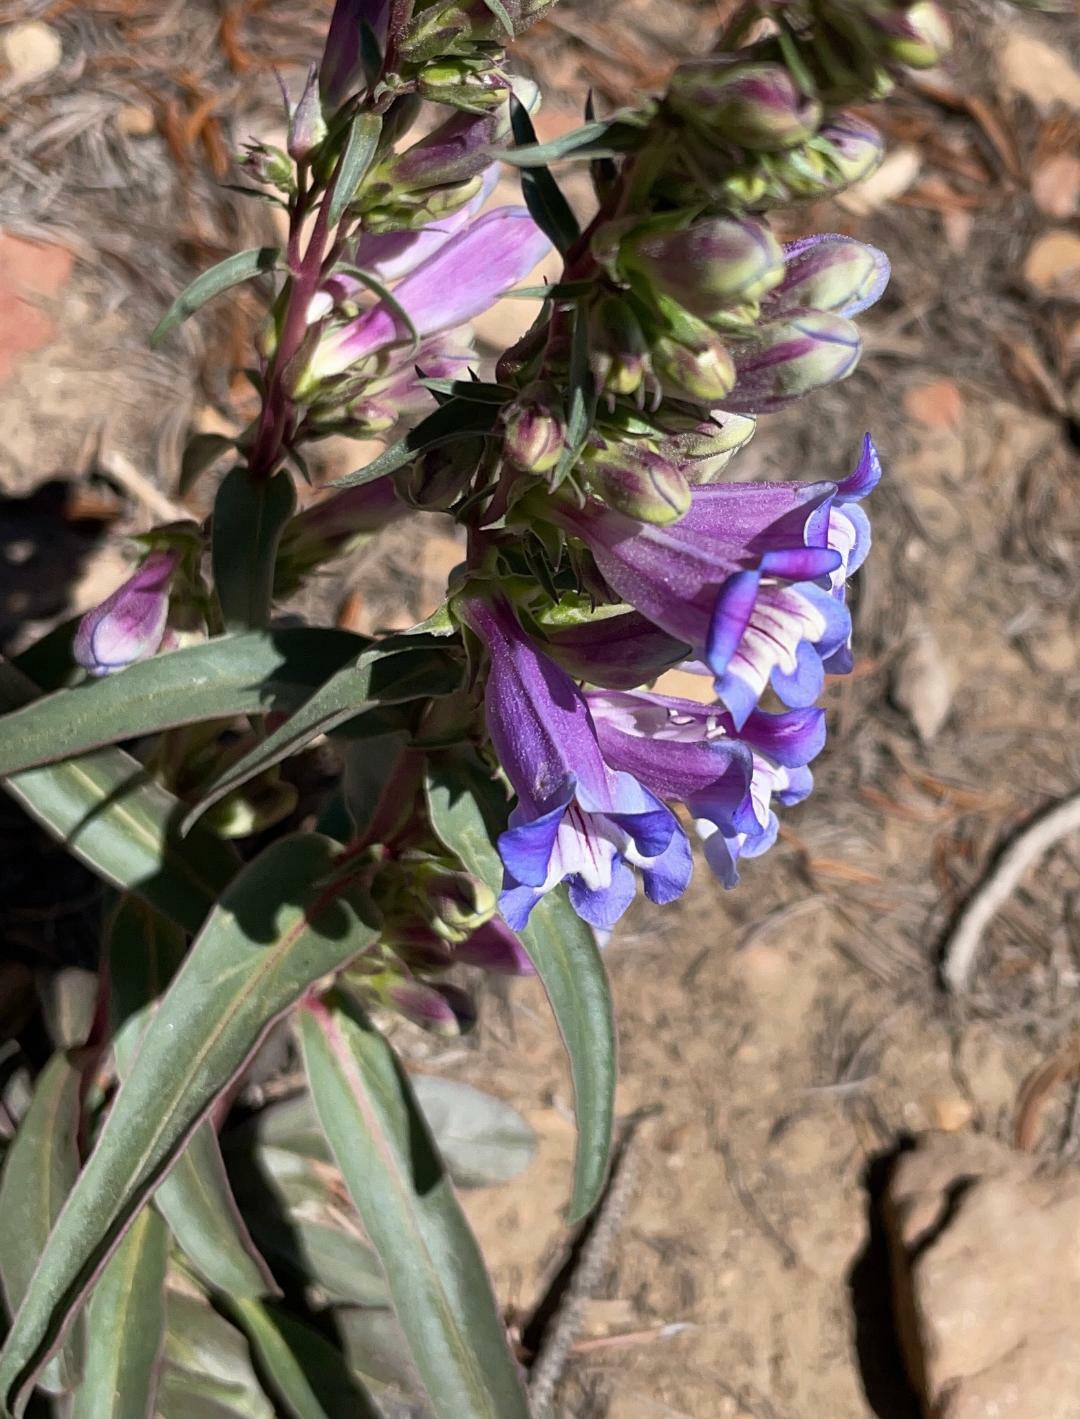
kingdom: Plantae
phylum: Tracheophyta
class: Magnoliopsida
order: Lamiales
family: Plantaginaceae
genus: Penstemon
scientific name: Penstemon speciosus
